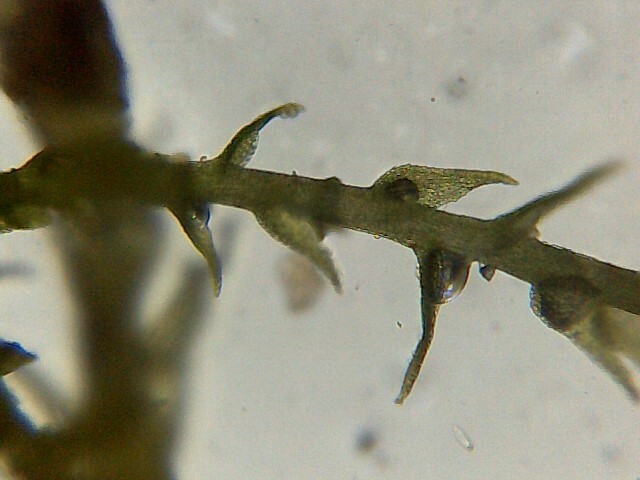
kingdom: Plantae
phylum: Bryophyta
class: Bryopsida
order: Hypnales
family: Plagiotheciaceae
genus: Platydictya
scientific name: Platydictya jungermannioides
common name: False willow moss
